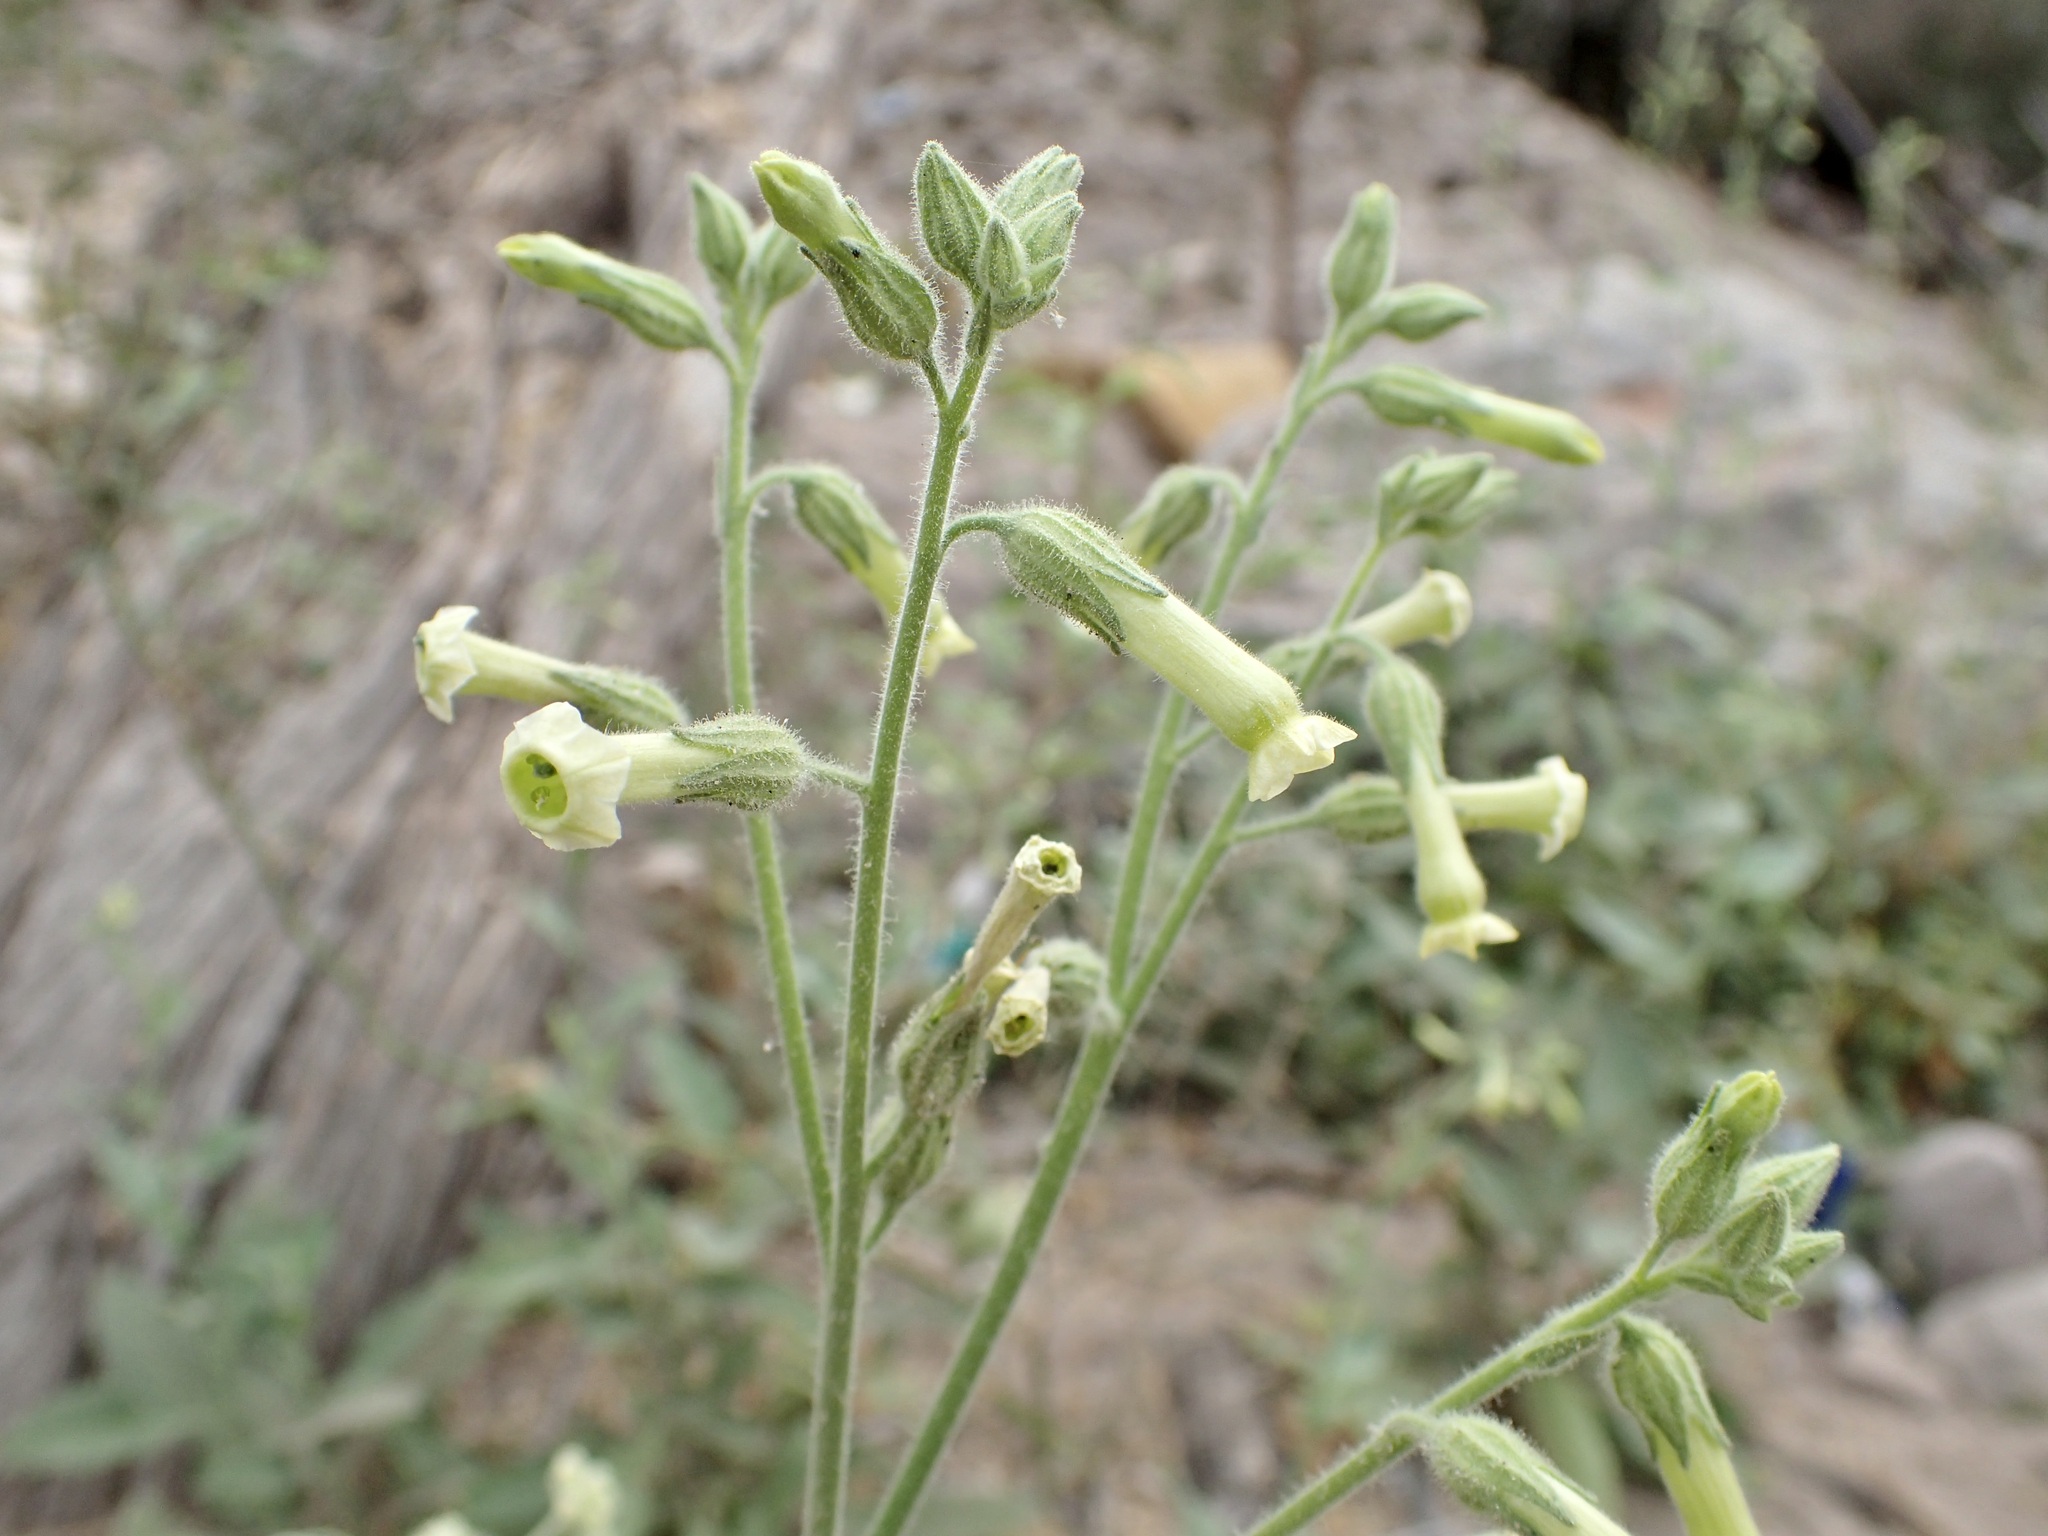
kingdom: Plantae
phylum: Tracheophyta
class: Magnoliopsida
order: Solanales
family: Solanaceae
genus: Nicotiana
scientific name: Nicotiana obtusifolia
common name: Desert tobacco
